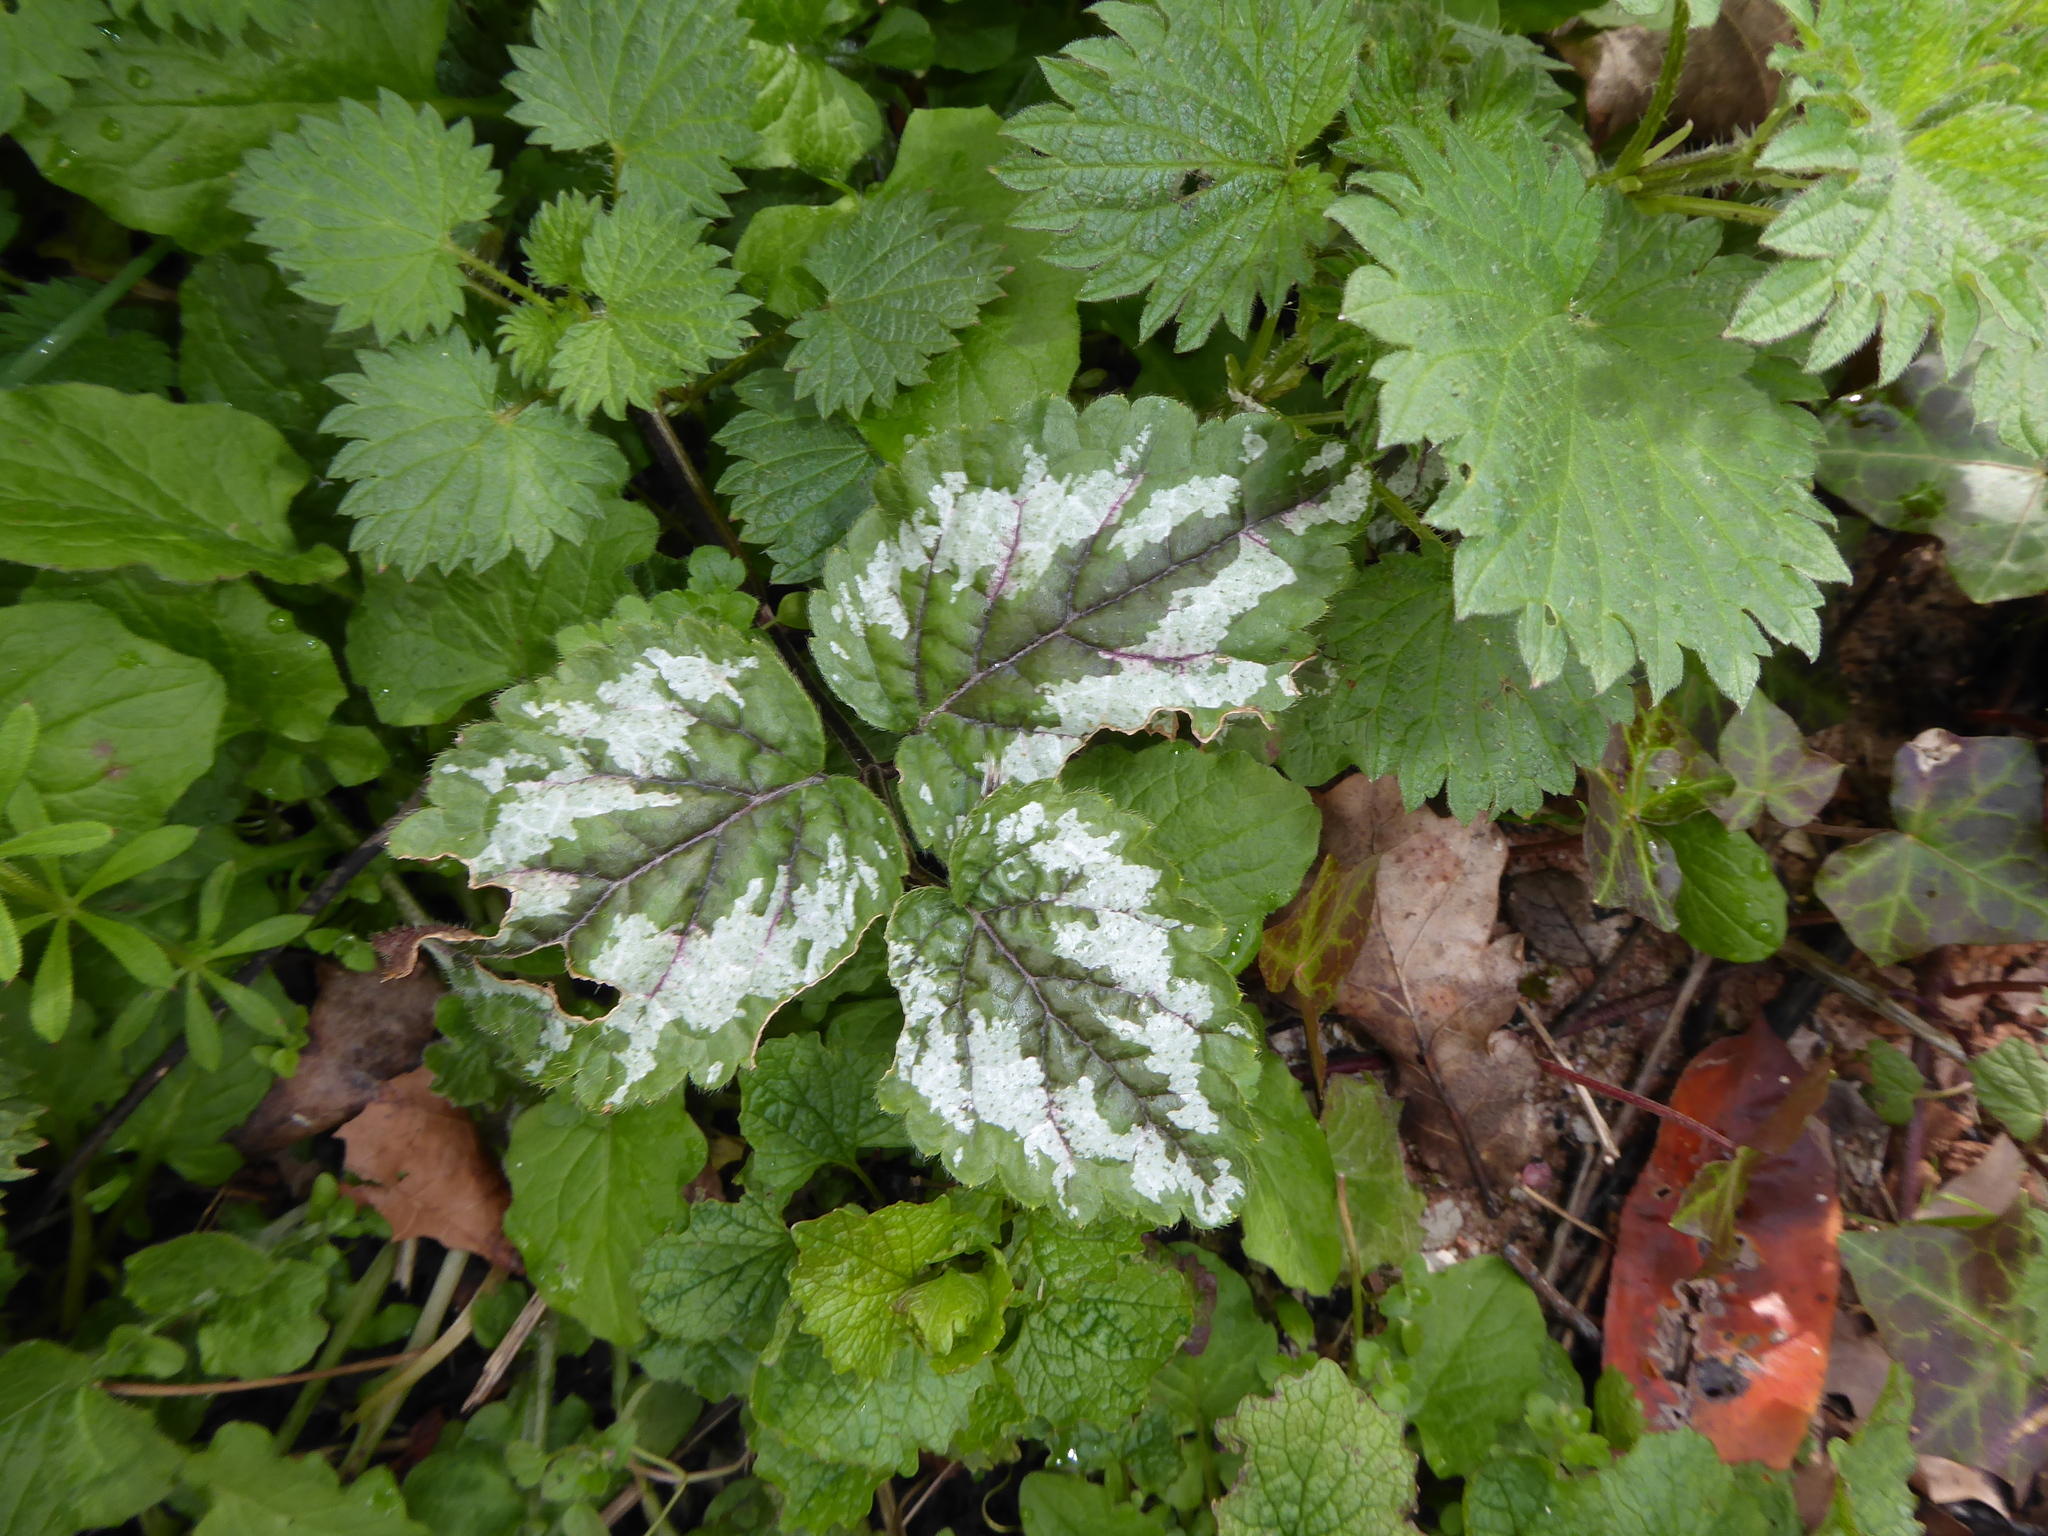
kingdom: Plantae
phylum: Tracheophyta
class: Magnoliopsida
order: Lamiales
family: Lamiaceae
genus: Lamium
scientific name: Lamium galeobdolon
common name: Yellow archangel
